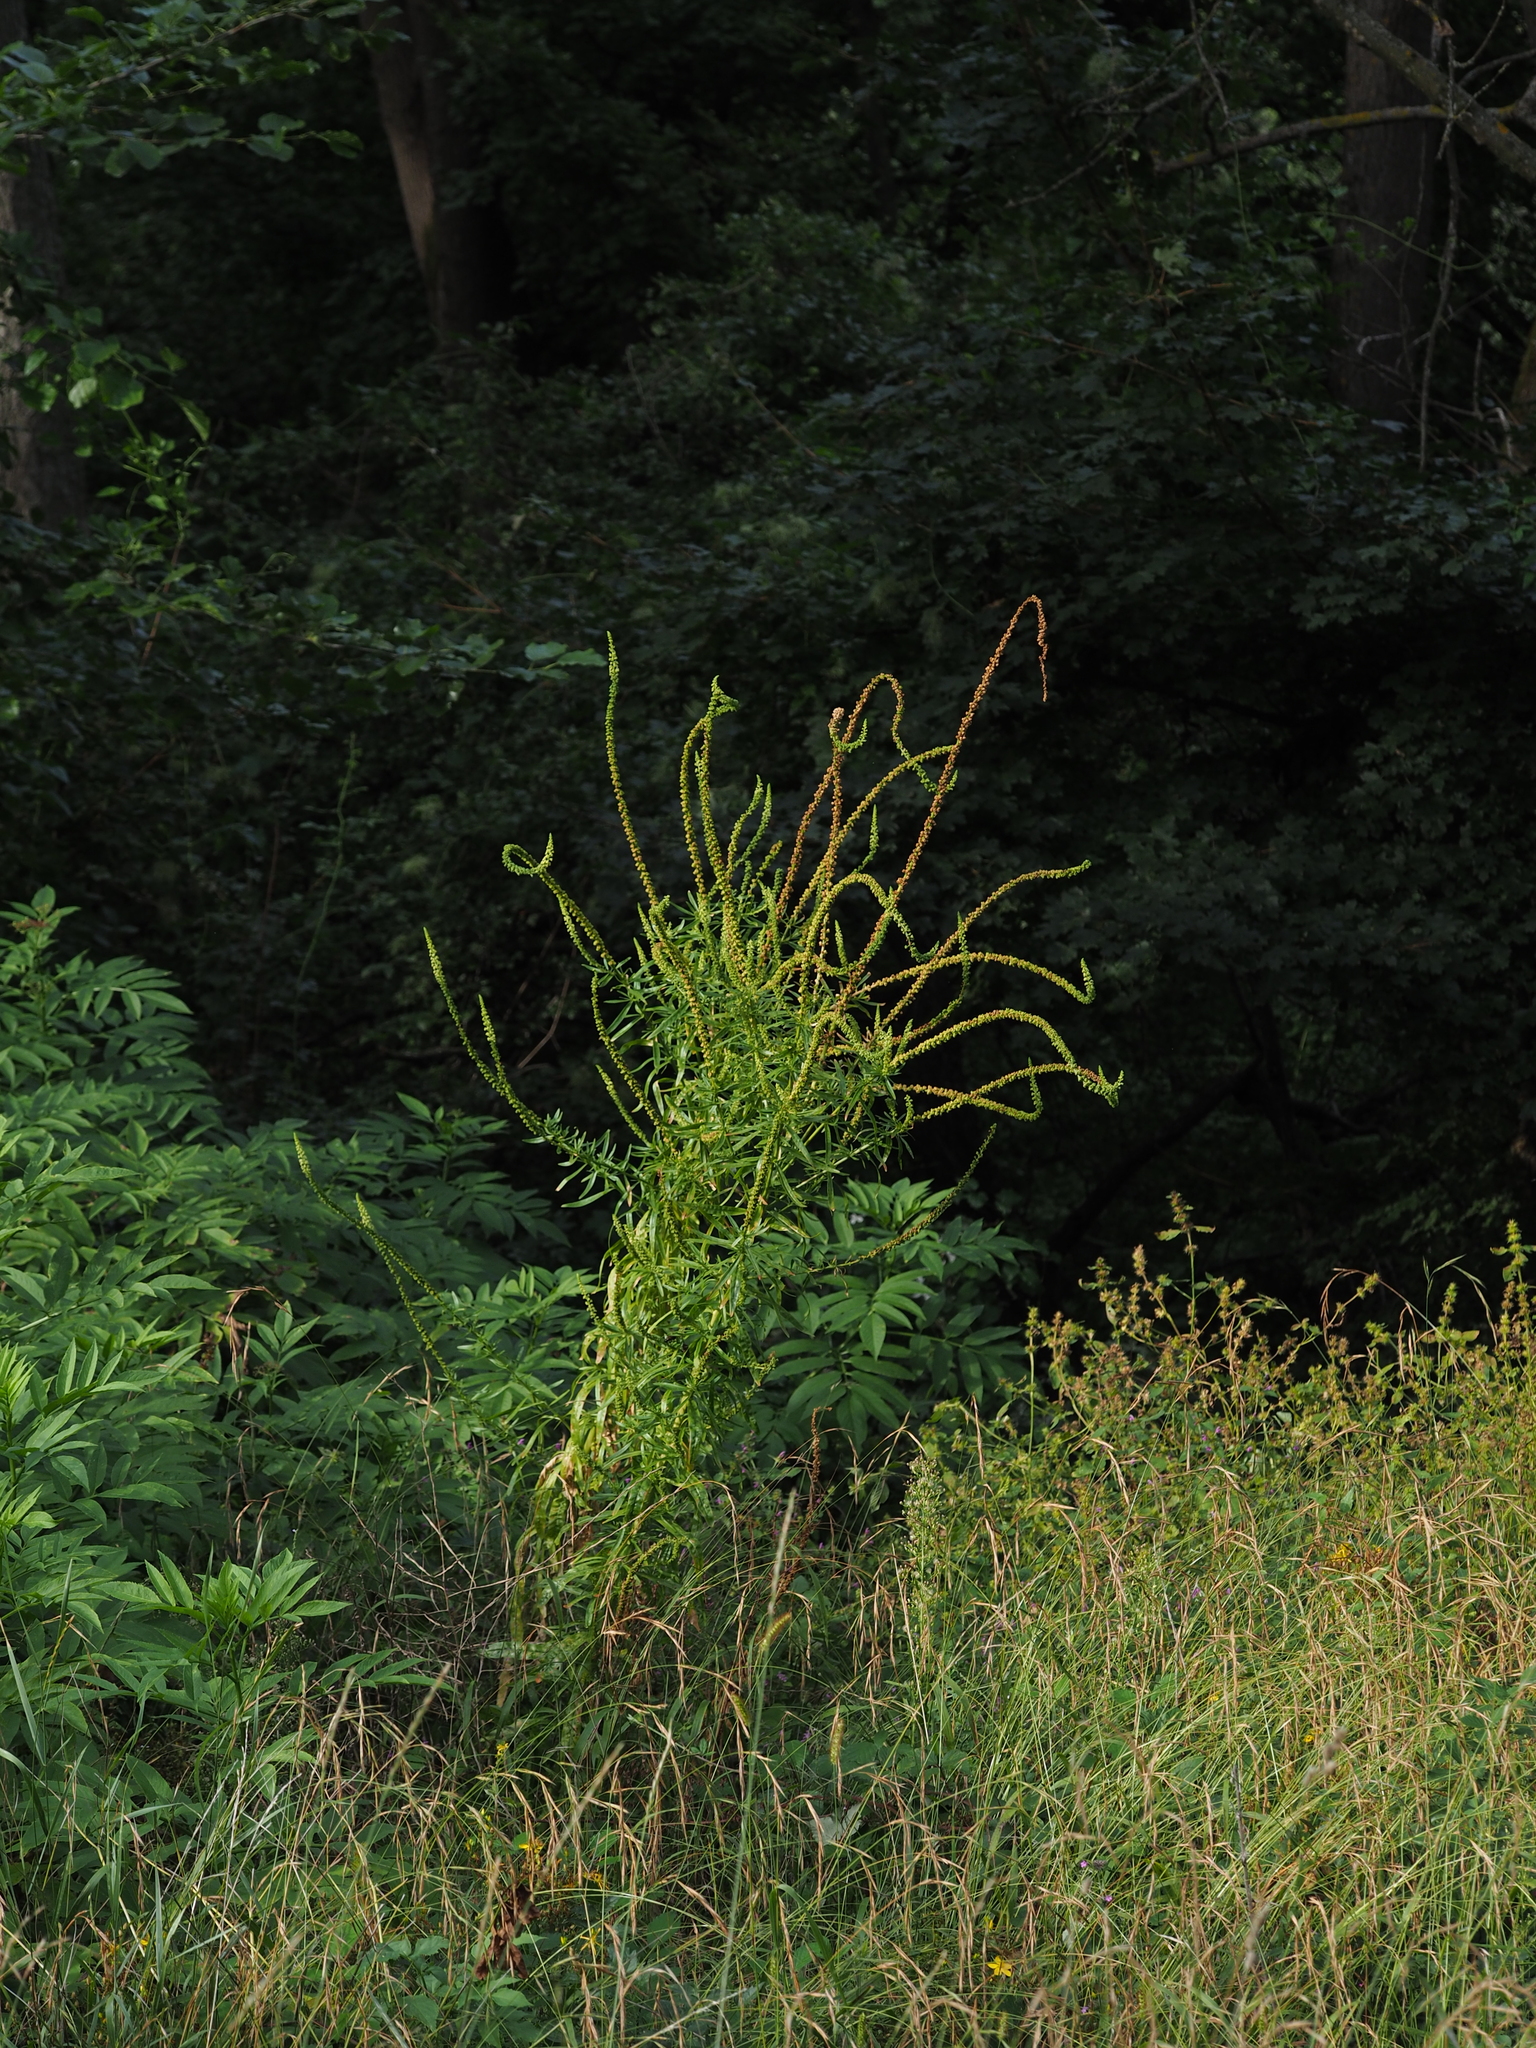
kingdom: Plantae
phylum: Tracheophyta
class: Magnoliopsida
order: Brassicales
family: Resedaceae
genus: Reseda
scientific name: Reseda luteola
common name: Weld
